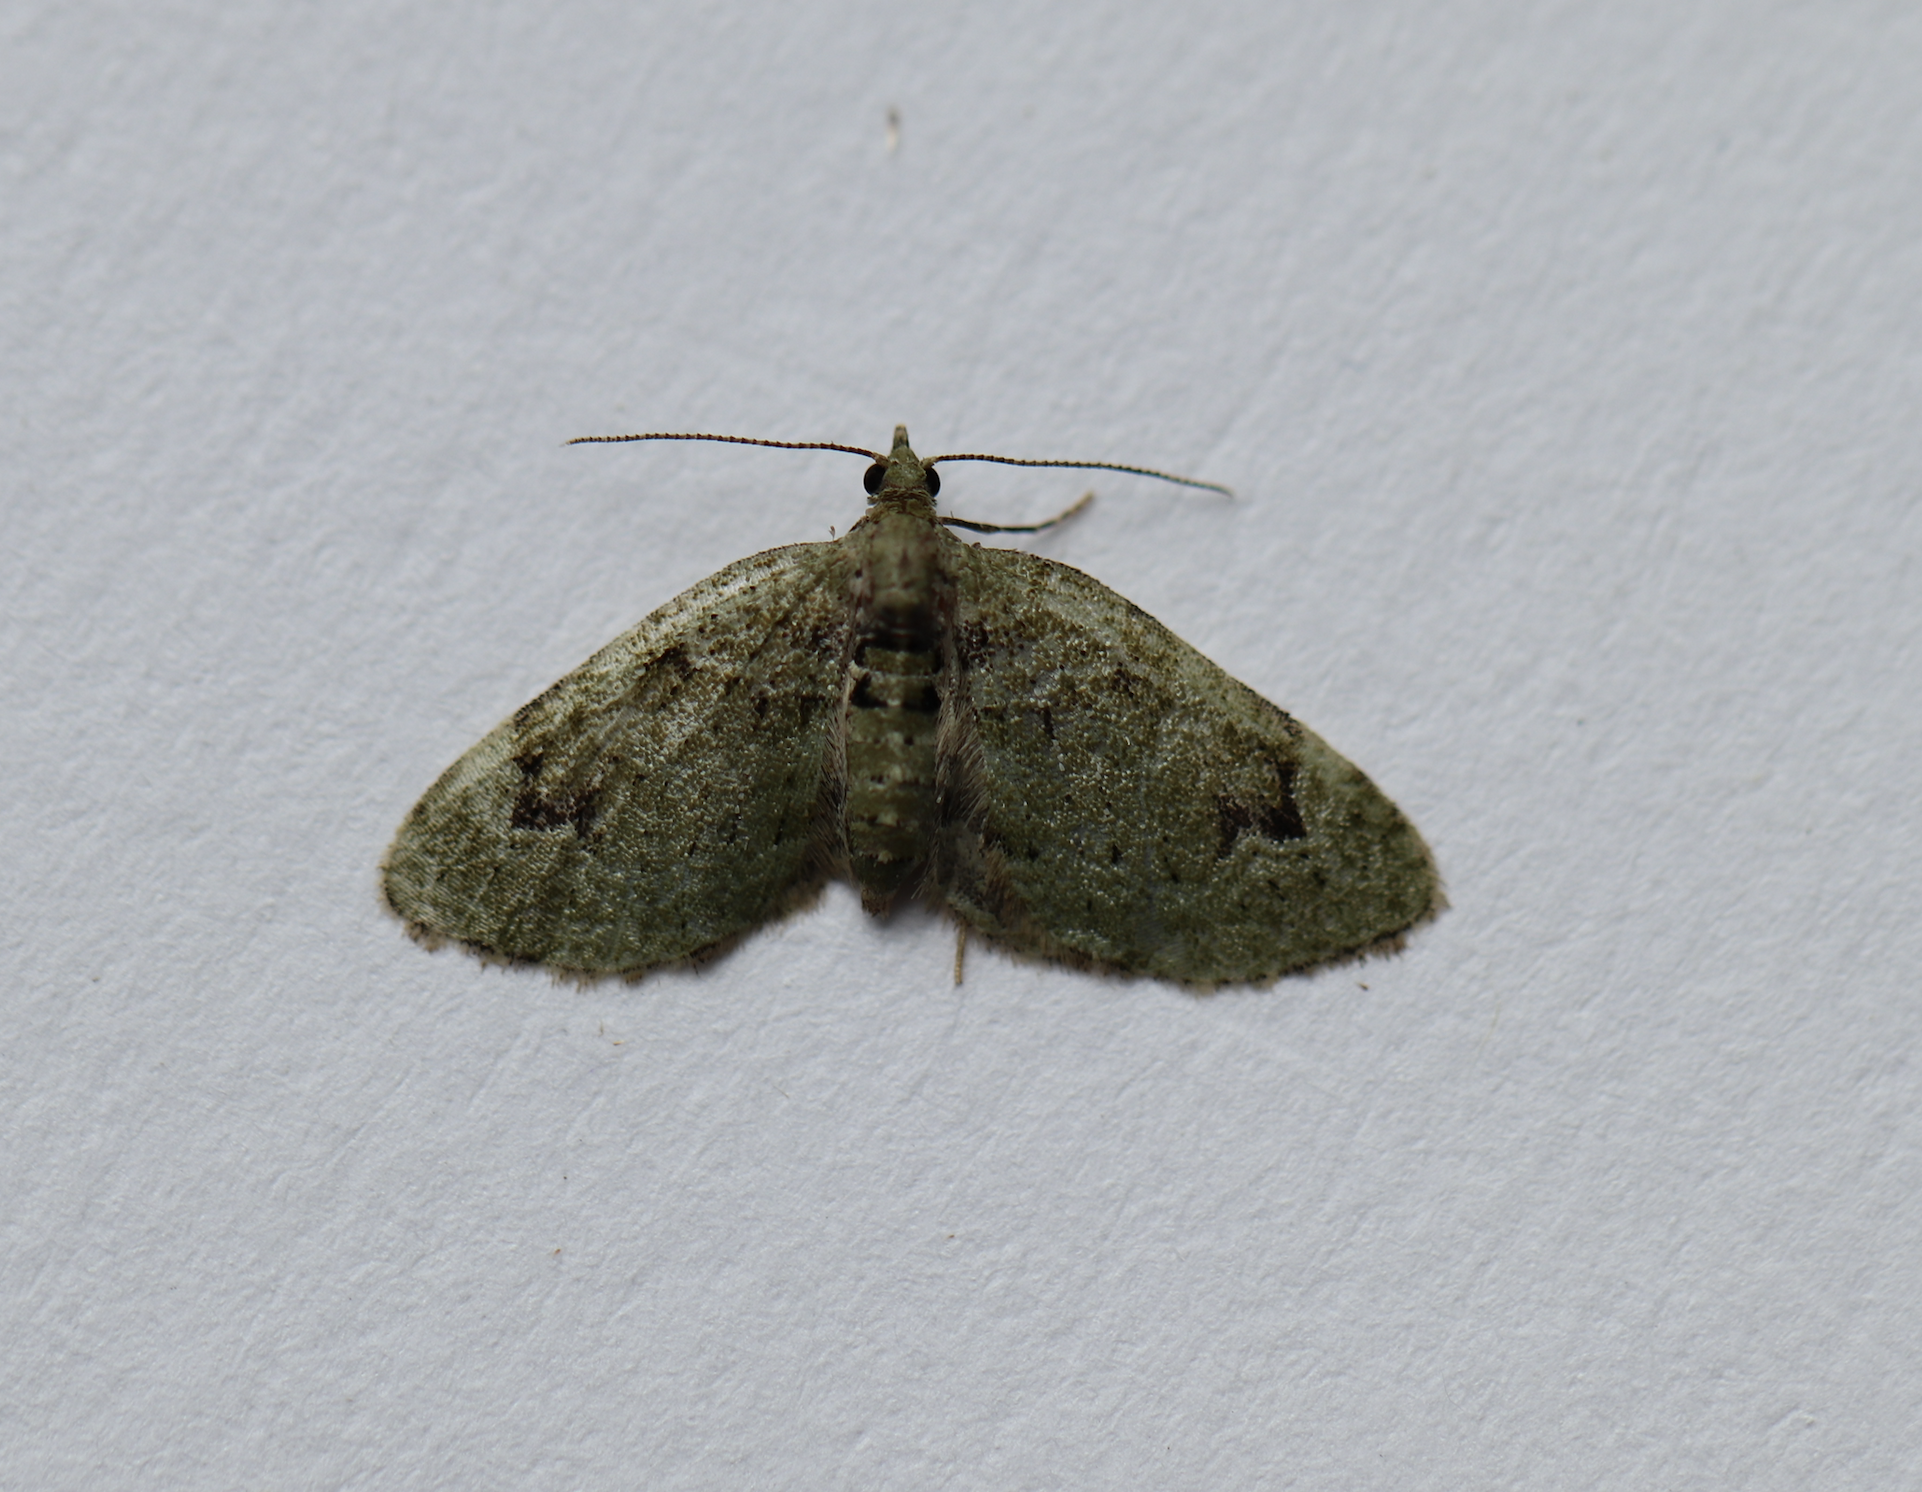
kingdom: Animalia
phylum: Arthropoda
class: Insecta
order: Lepidoptera
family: Geometridae
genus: Chloroclystis
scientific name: Chloroclystis v-ata
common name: V-pug
